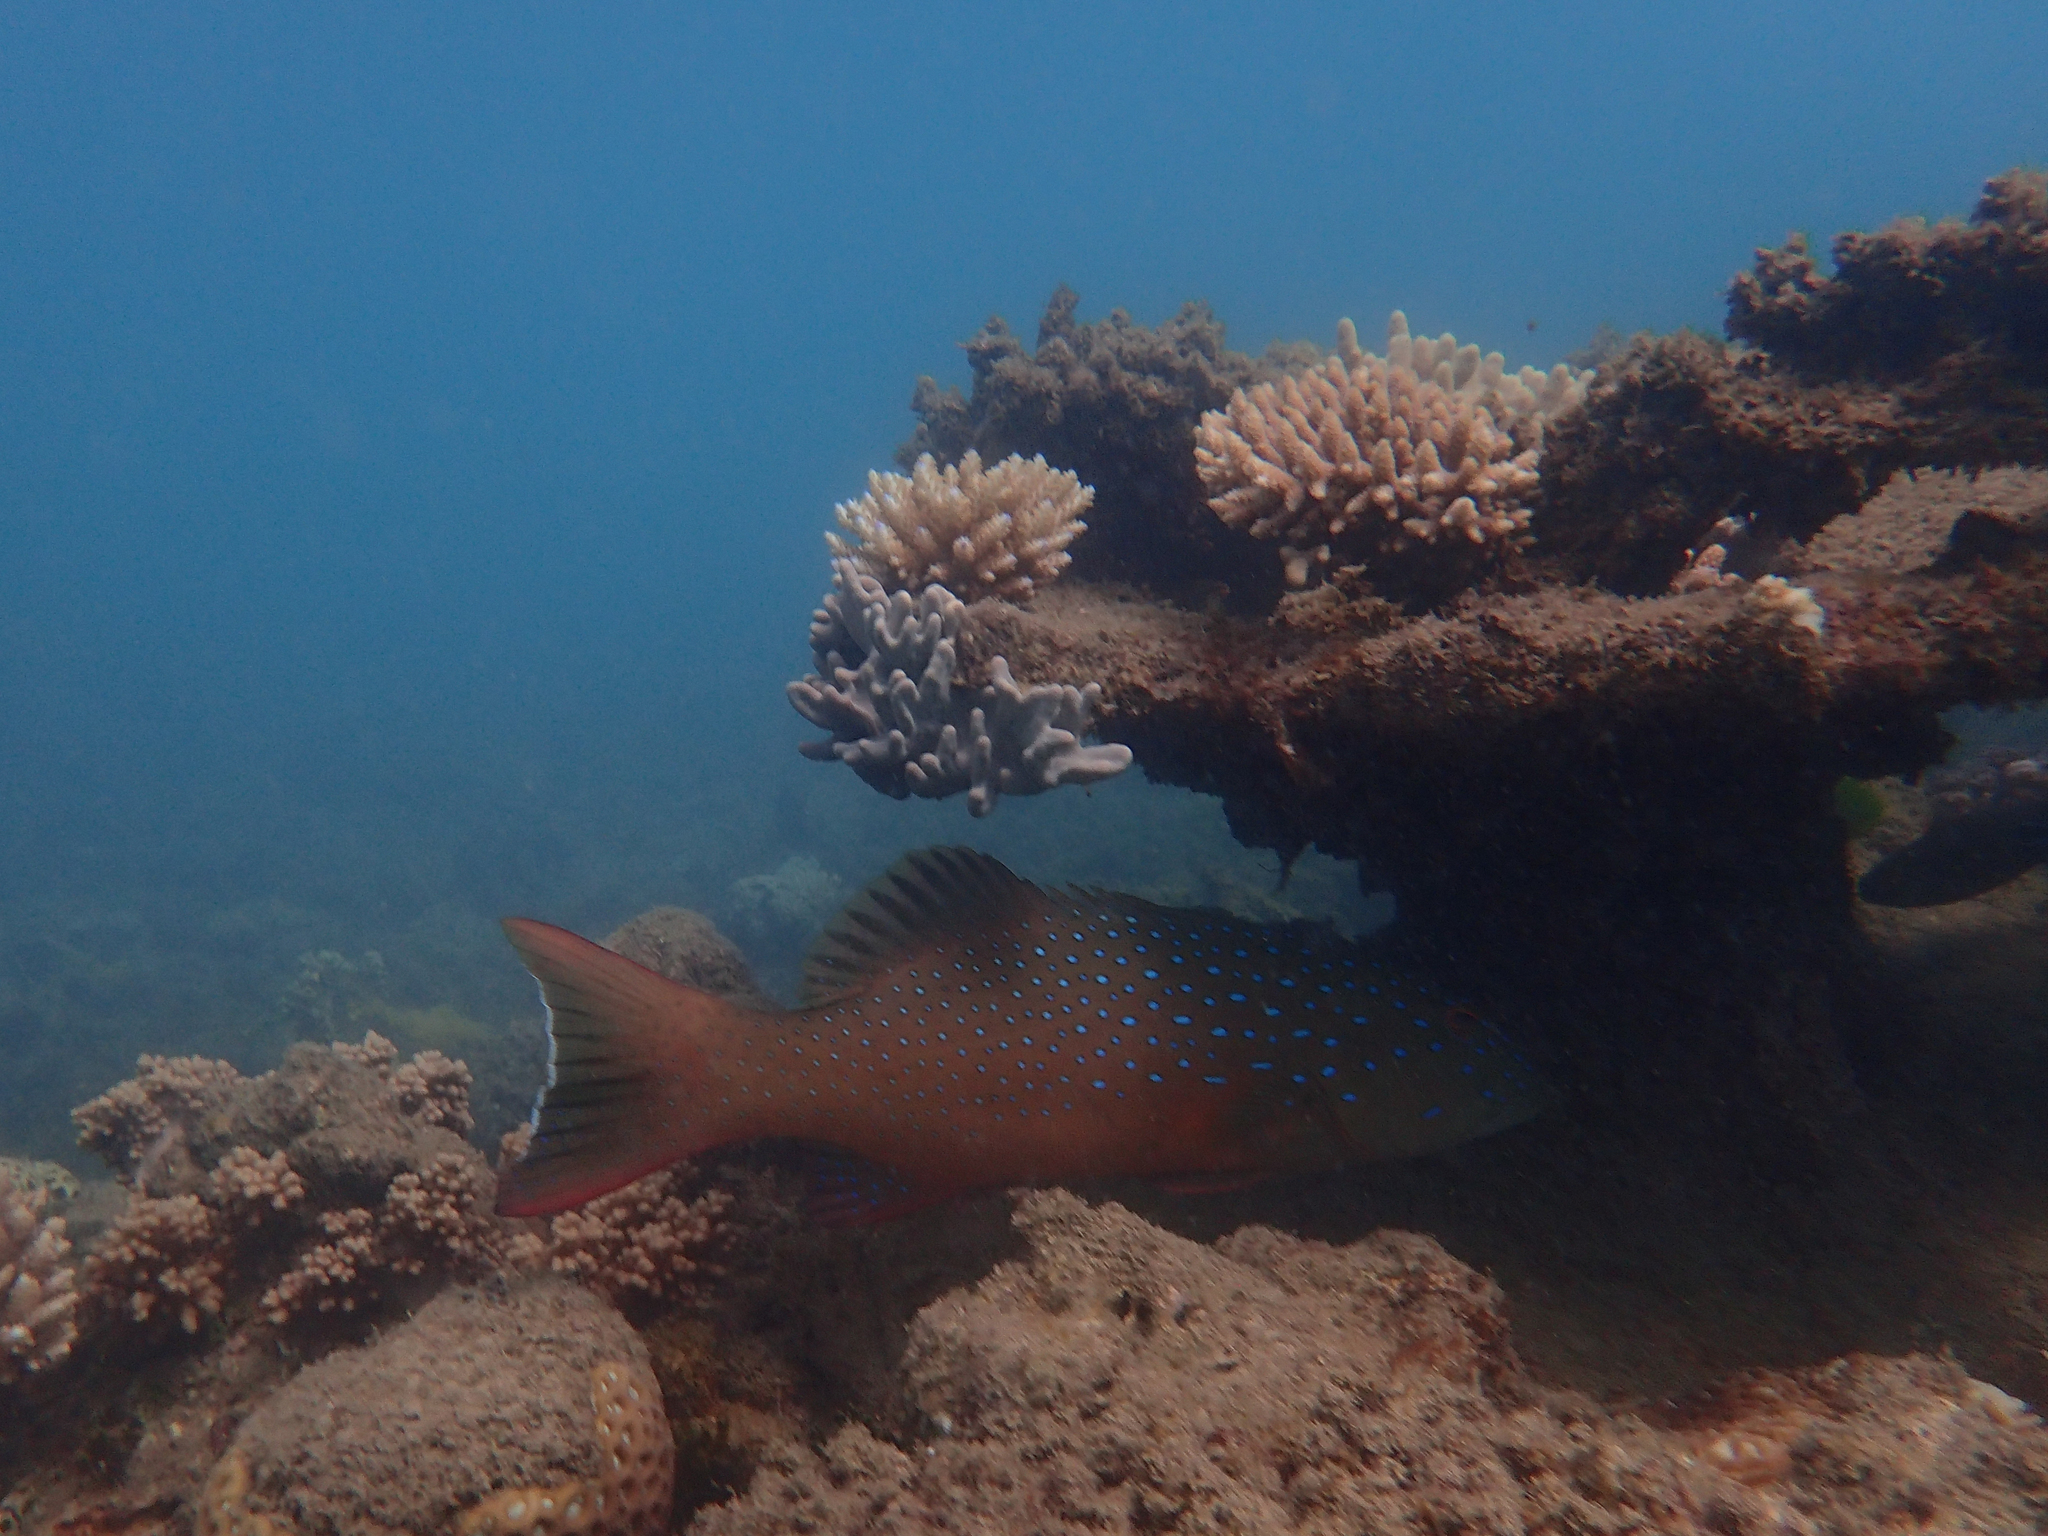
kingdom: Animalia
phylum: Chordata
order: Perciformes
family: Serranidae
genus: Plectropomus
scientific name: Plectropomus maculatus
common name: Spotted coralgrouper
